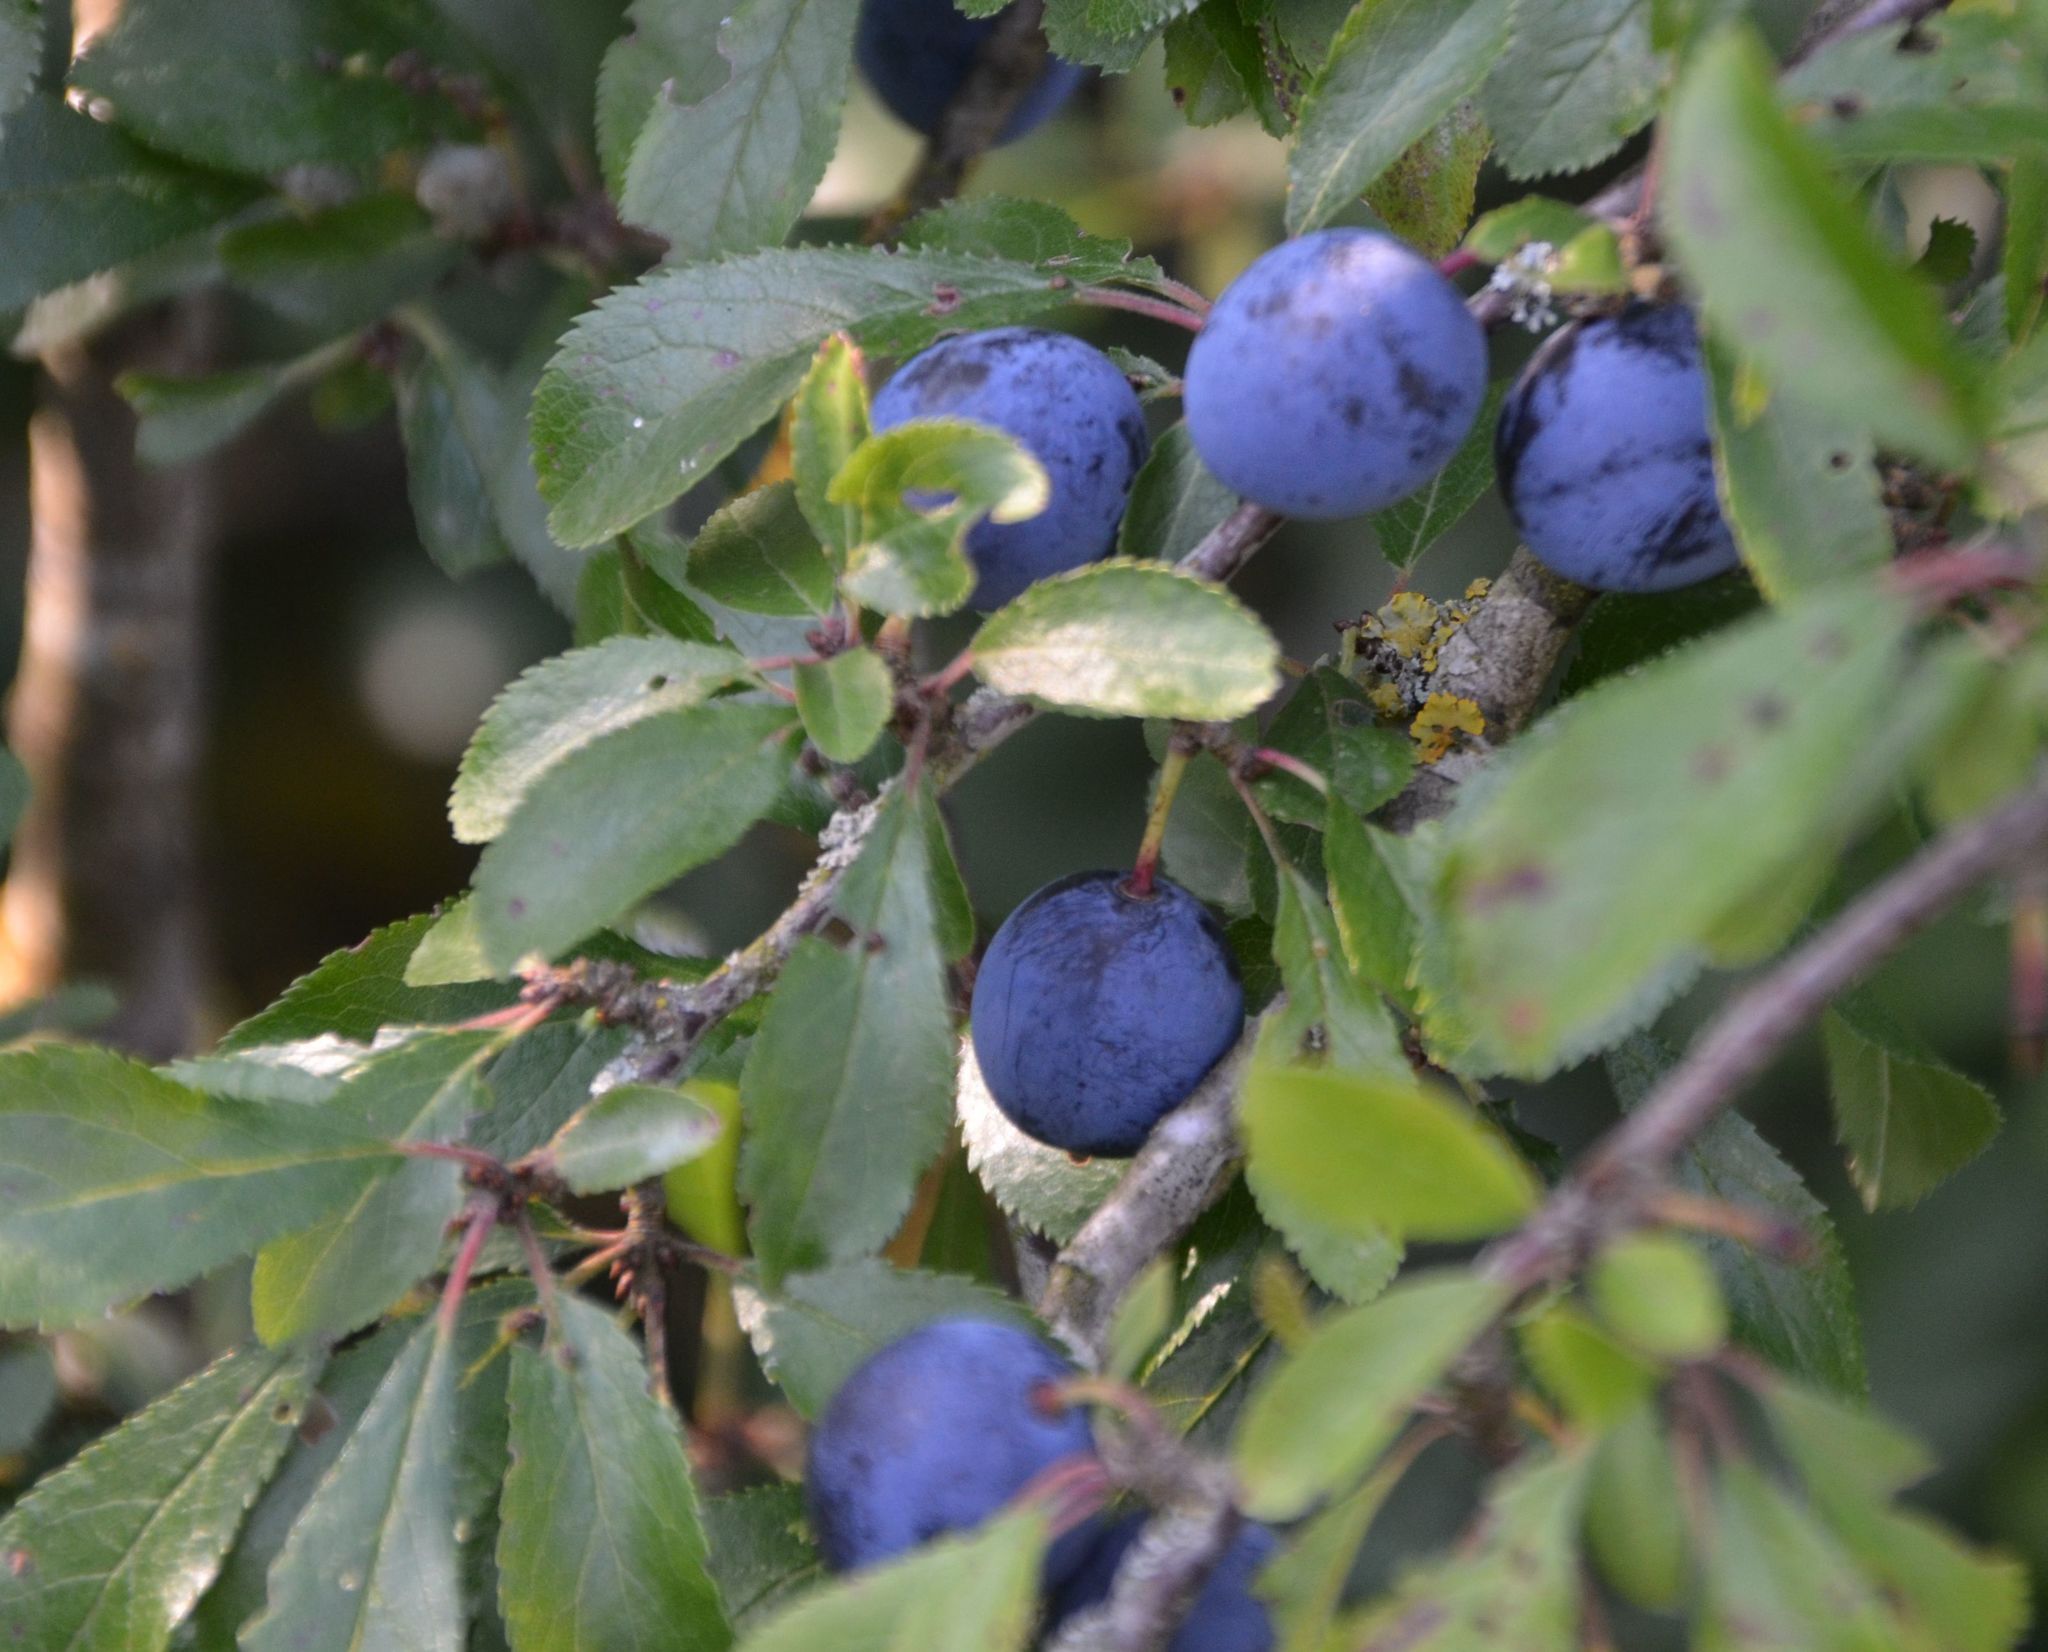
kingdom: Plantae
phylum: Tracheophyta
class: Magnoliopsida
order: Rosales
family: Rosaceae
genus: Prunus
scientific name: Prunus spinosa
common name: Blackthorn
